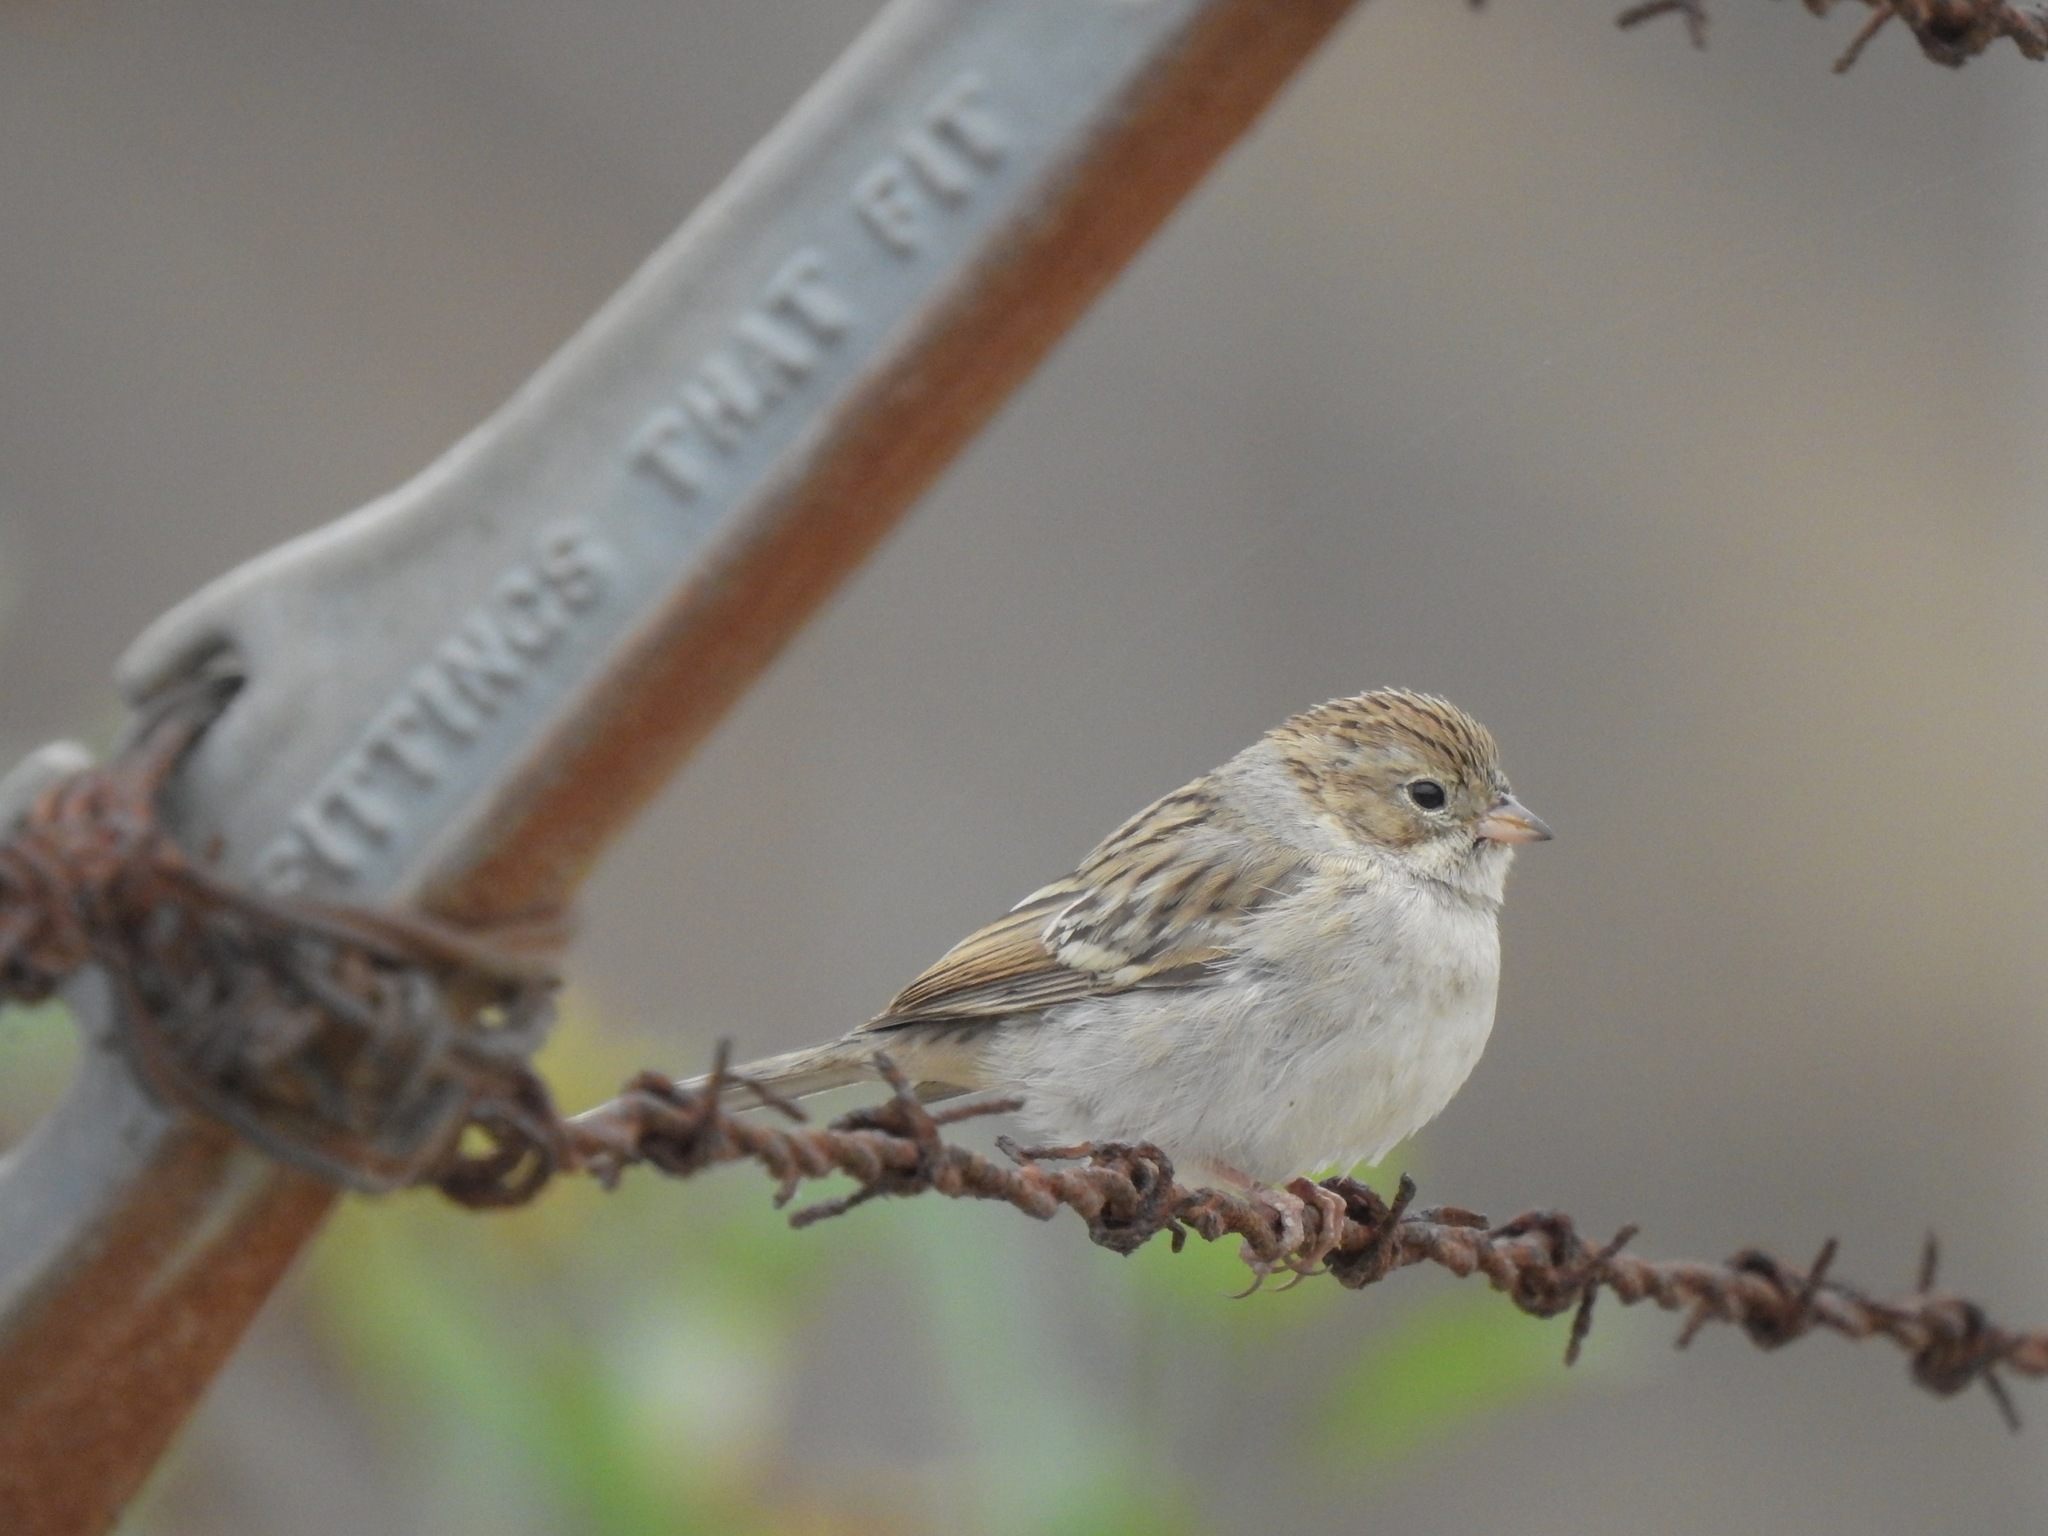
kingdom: Animalia
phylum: Chordata
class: Aves
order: Passeriformes
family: Passerellidae
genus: Spizella
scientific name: Spizella breweri
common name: Brewer's sparrow
